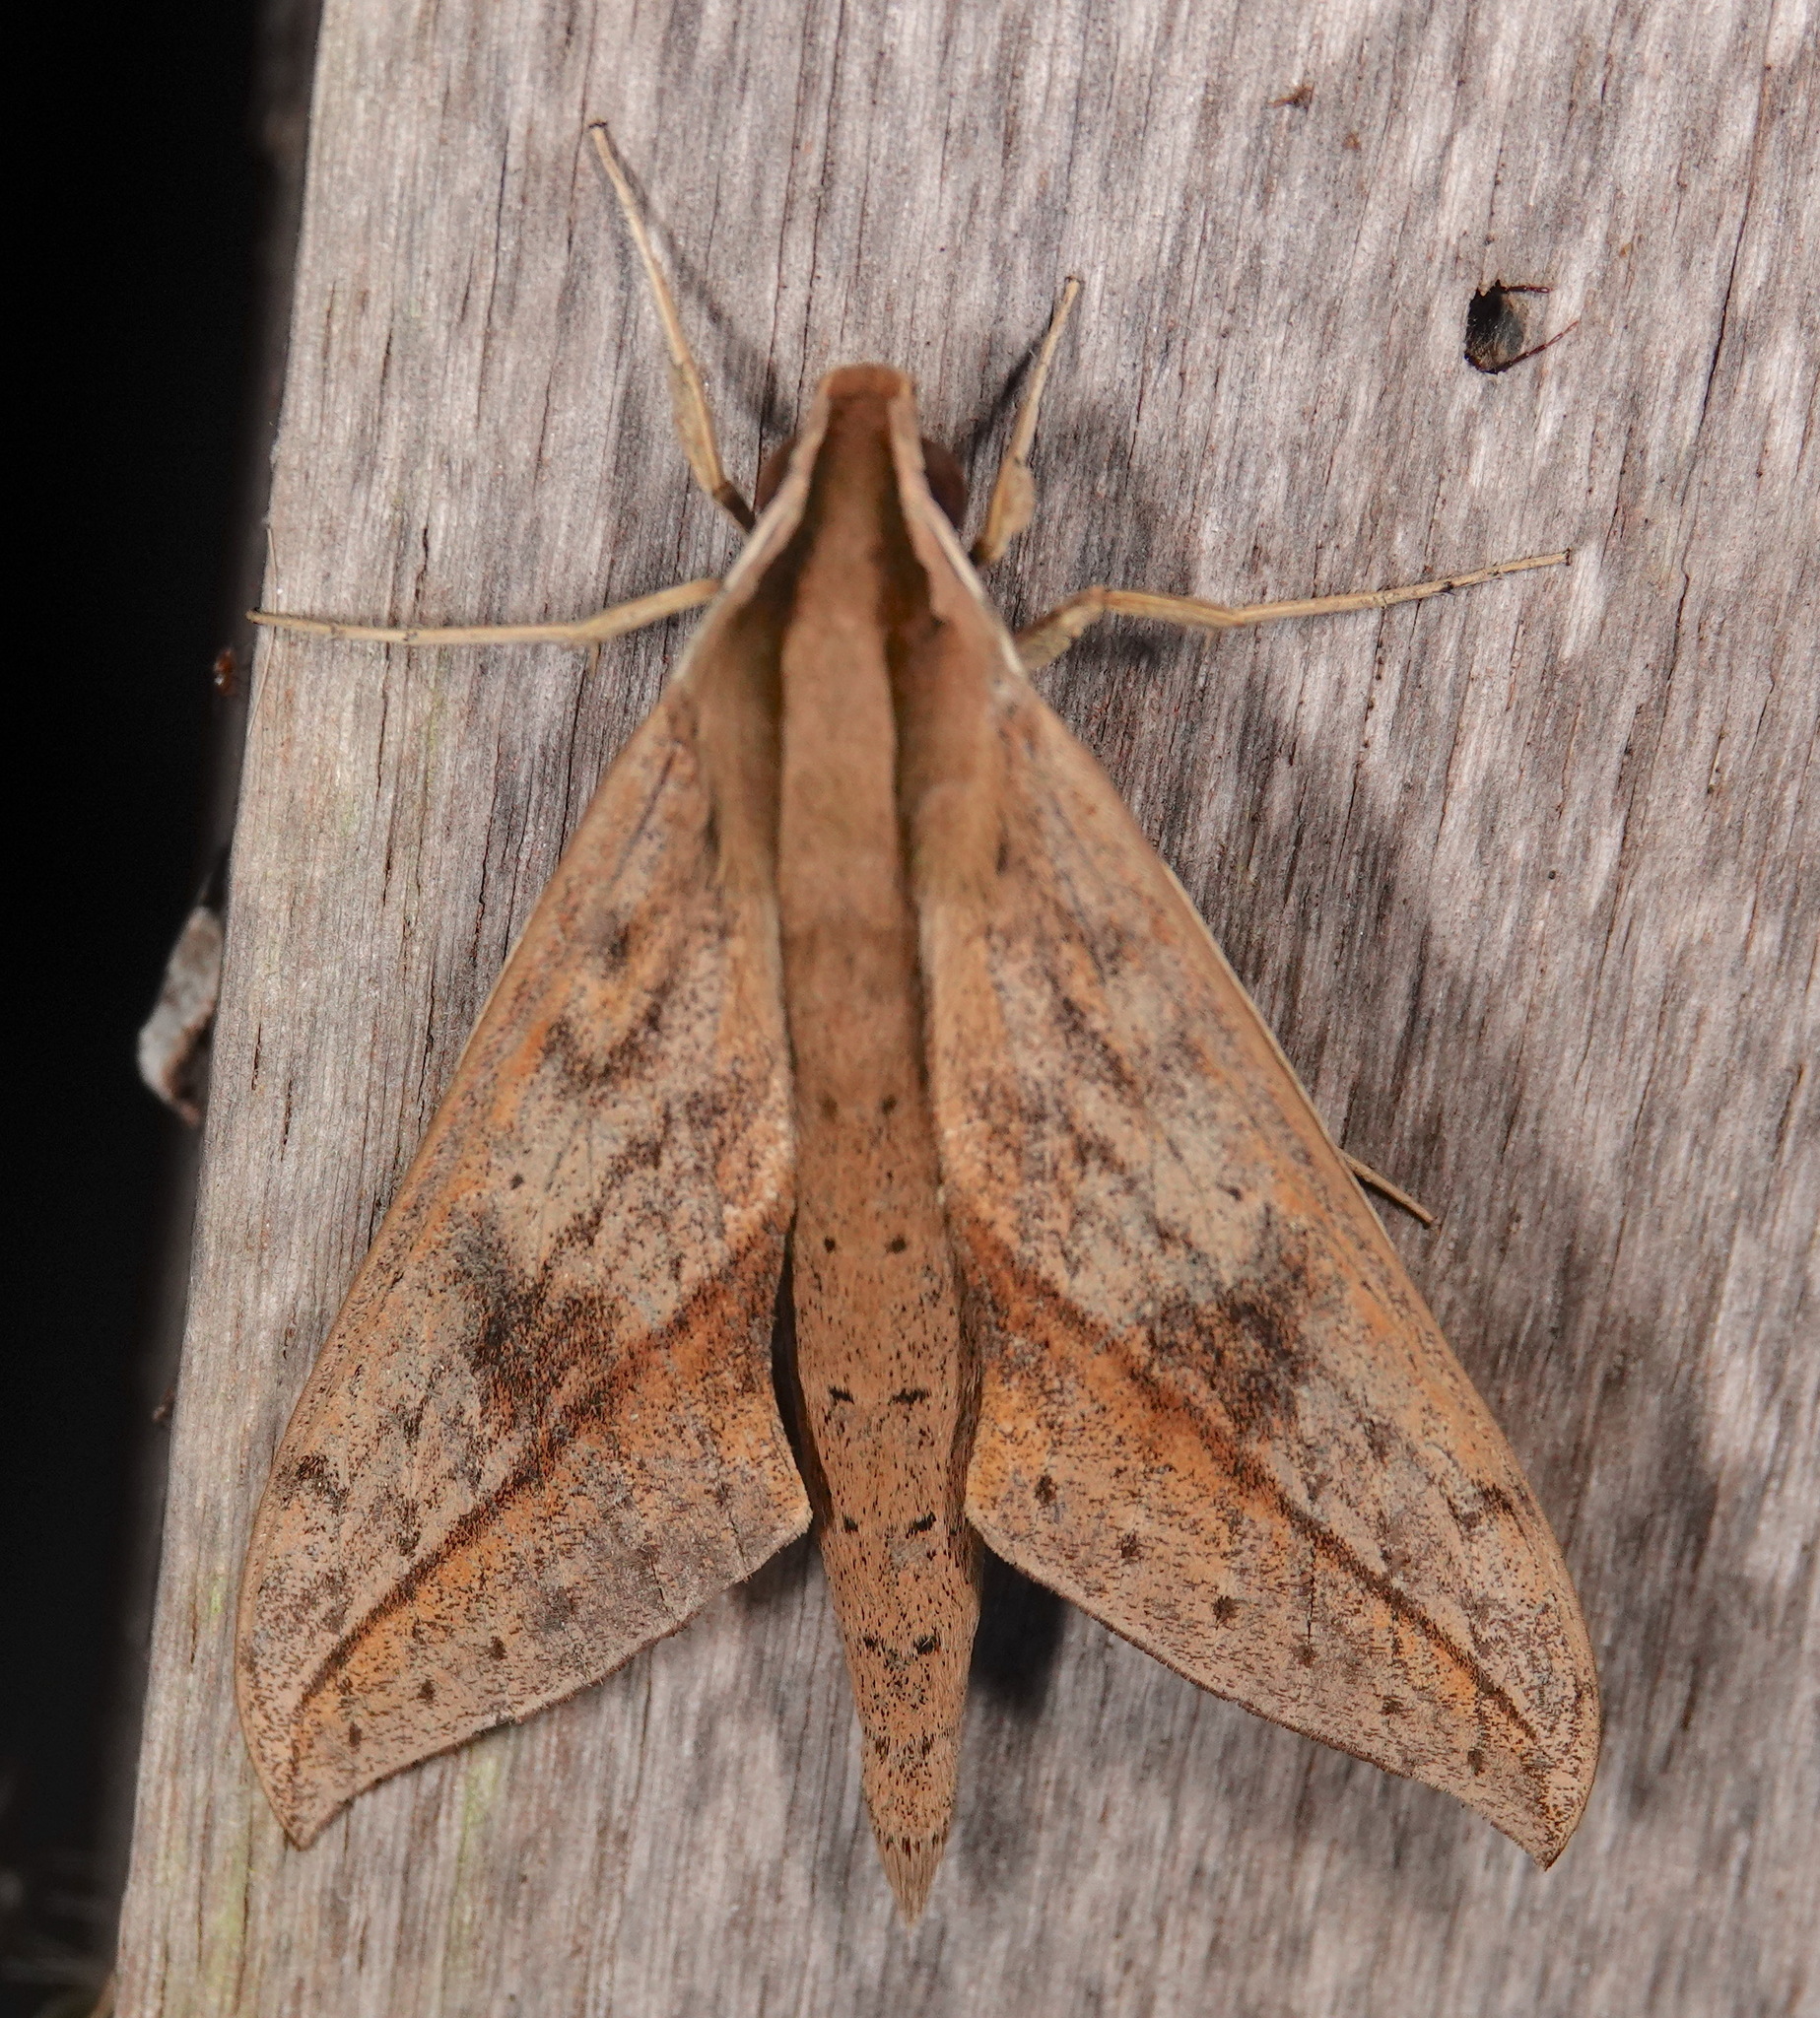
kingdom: Animalia
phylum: Arthropoda
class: Insecta
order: Lepidoptera
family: Sphingidae
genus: Xylophanes
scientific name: Xylophanes anubus
